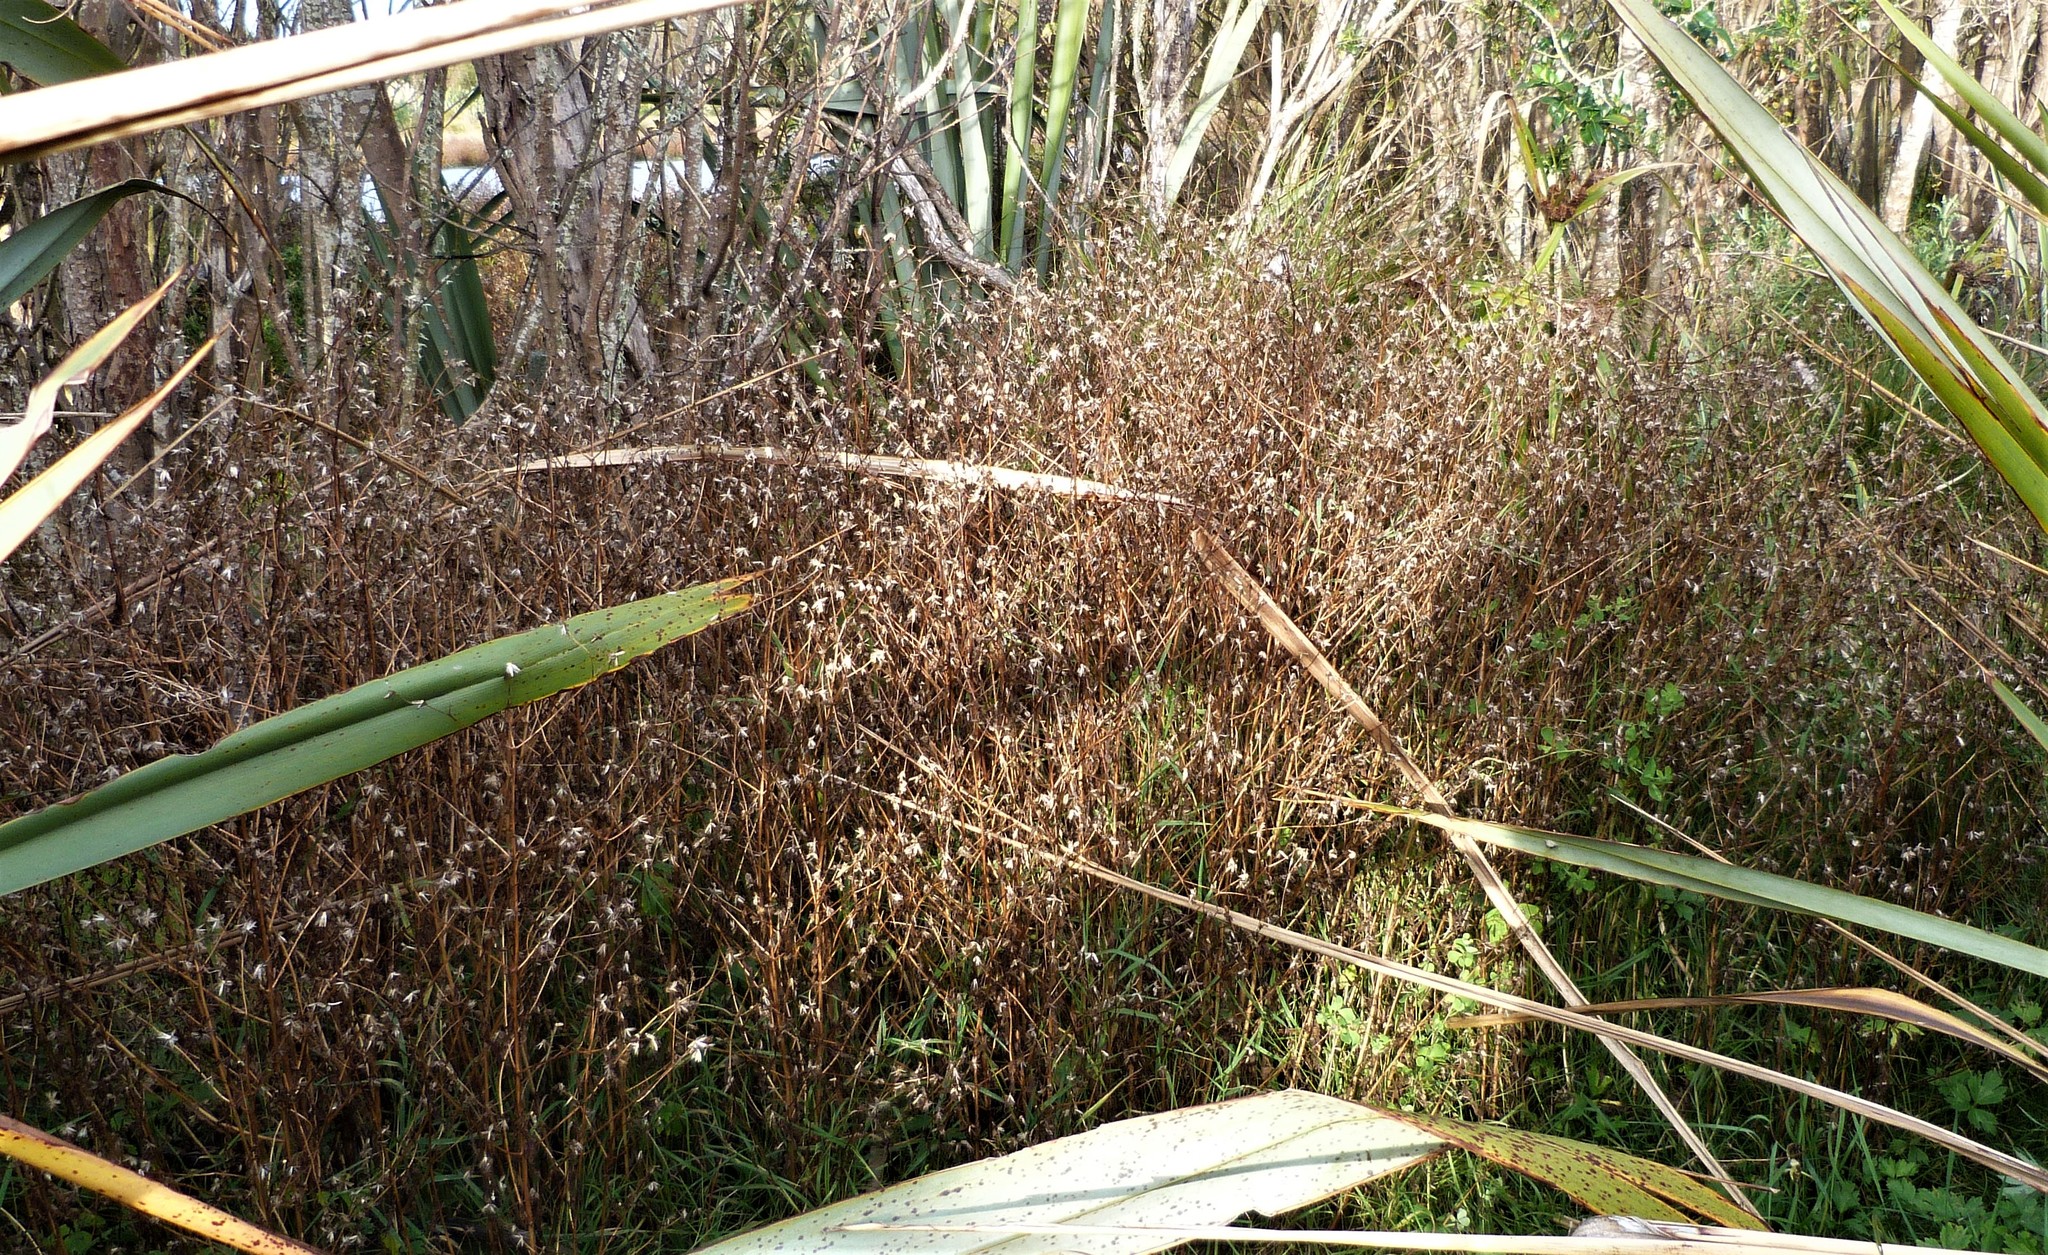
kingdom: Plantae
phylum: Tracheophyta
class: Magnoliopsida
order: Asterales
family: Asteraceae
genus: Bidens
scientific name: Bidens frondosa
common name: Beggarticks
